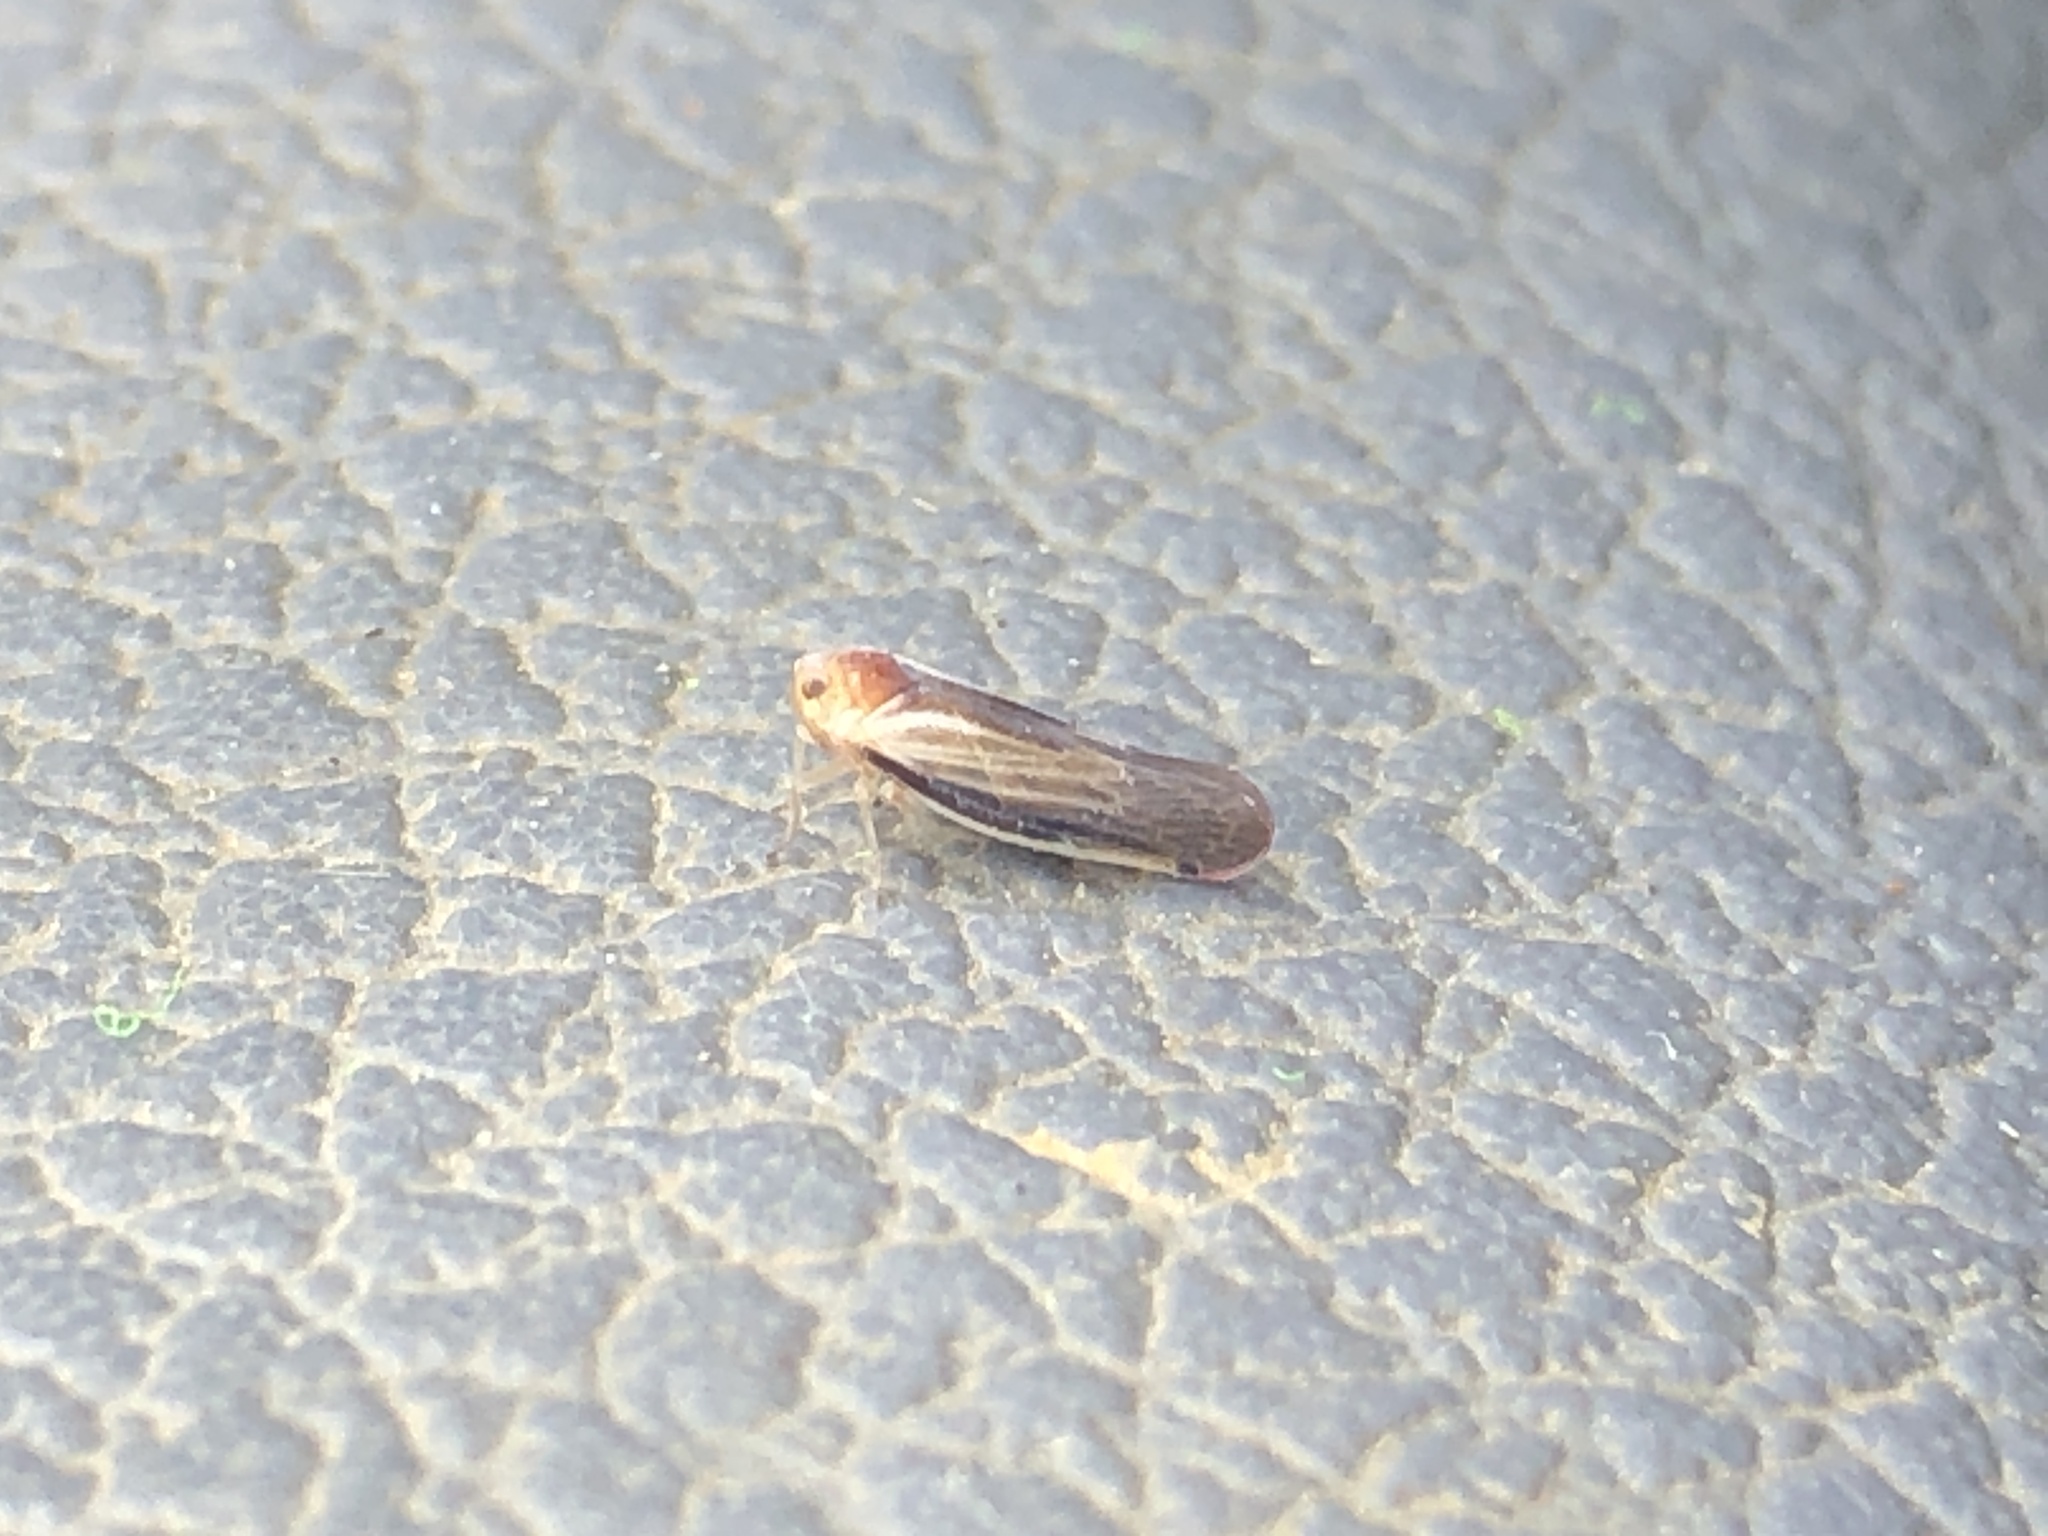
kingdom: Animalia
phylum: Arthropoda
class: Insecta
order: Hemiptera
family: Derbidae
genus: Omolicna
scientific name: Omolicna uhleri
